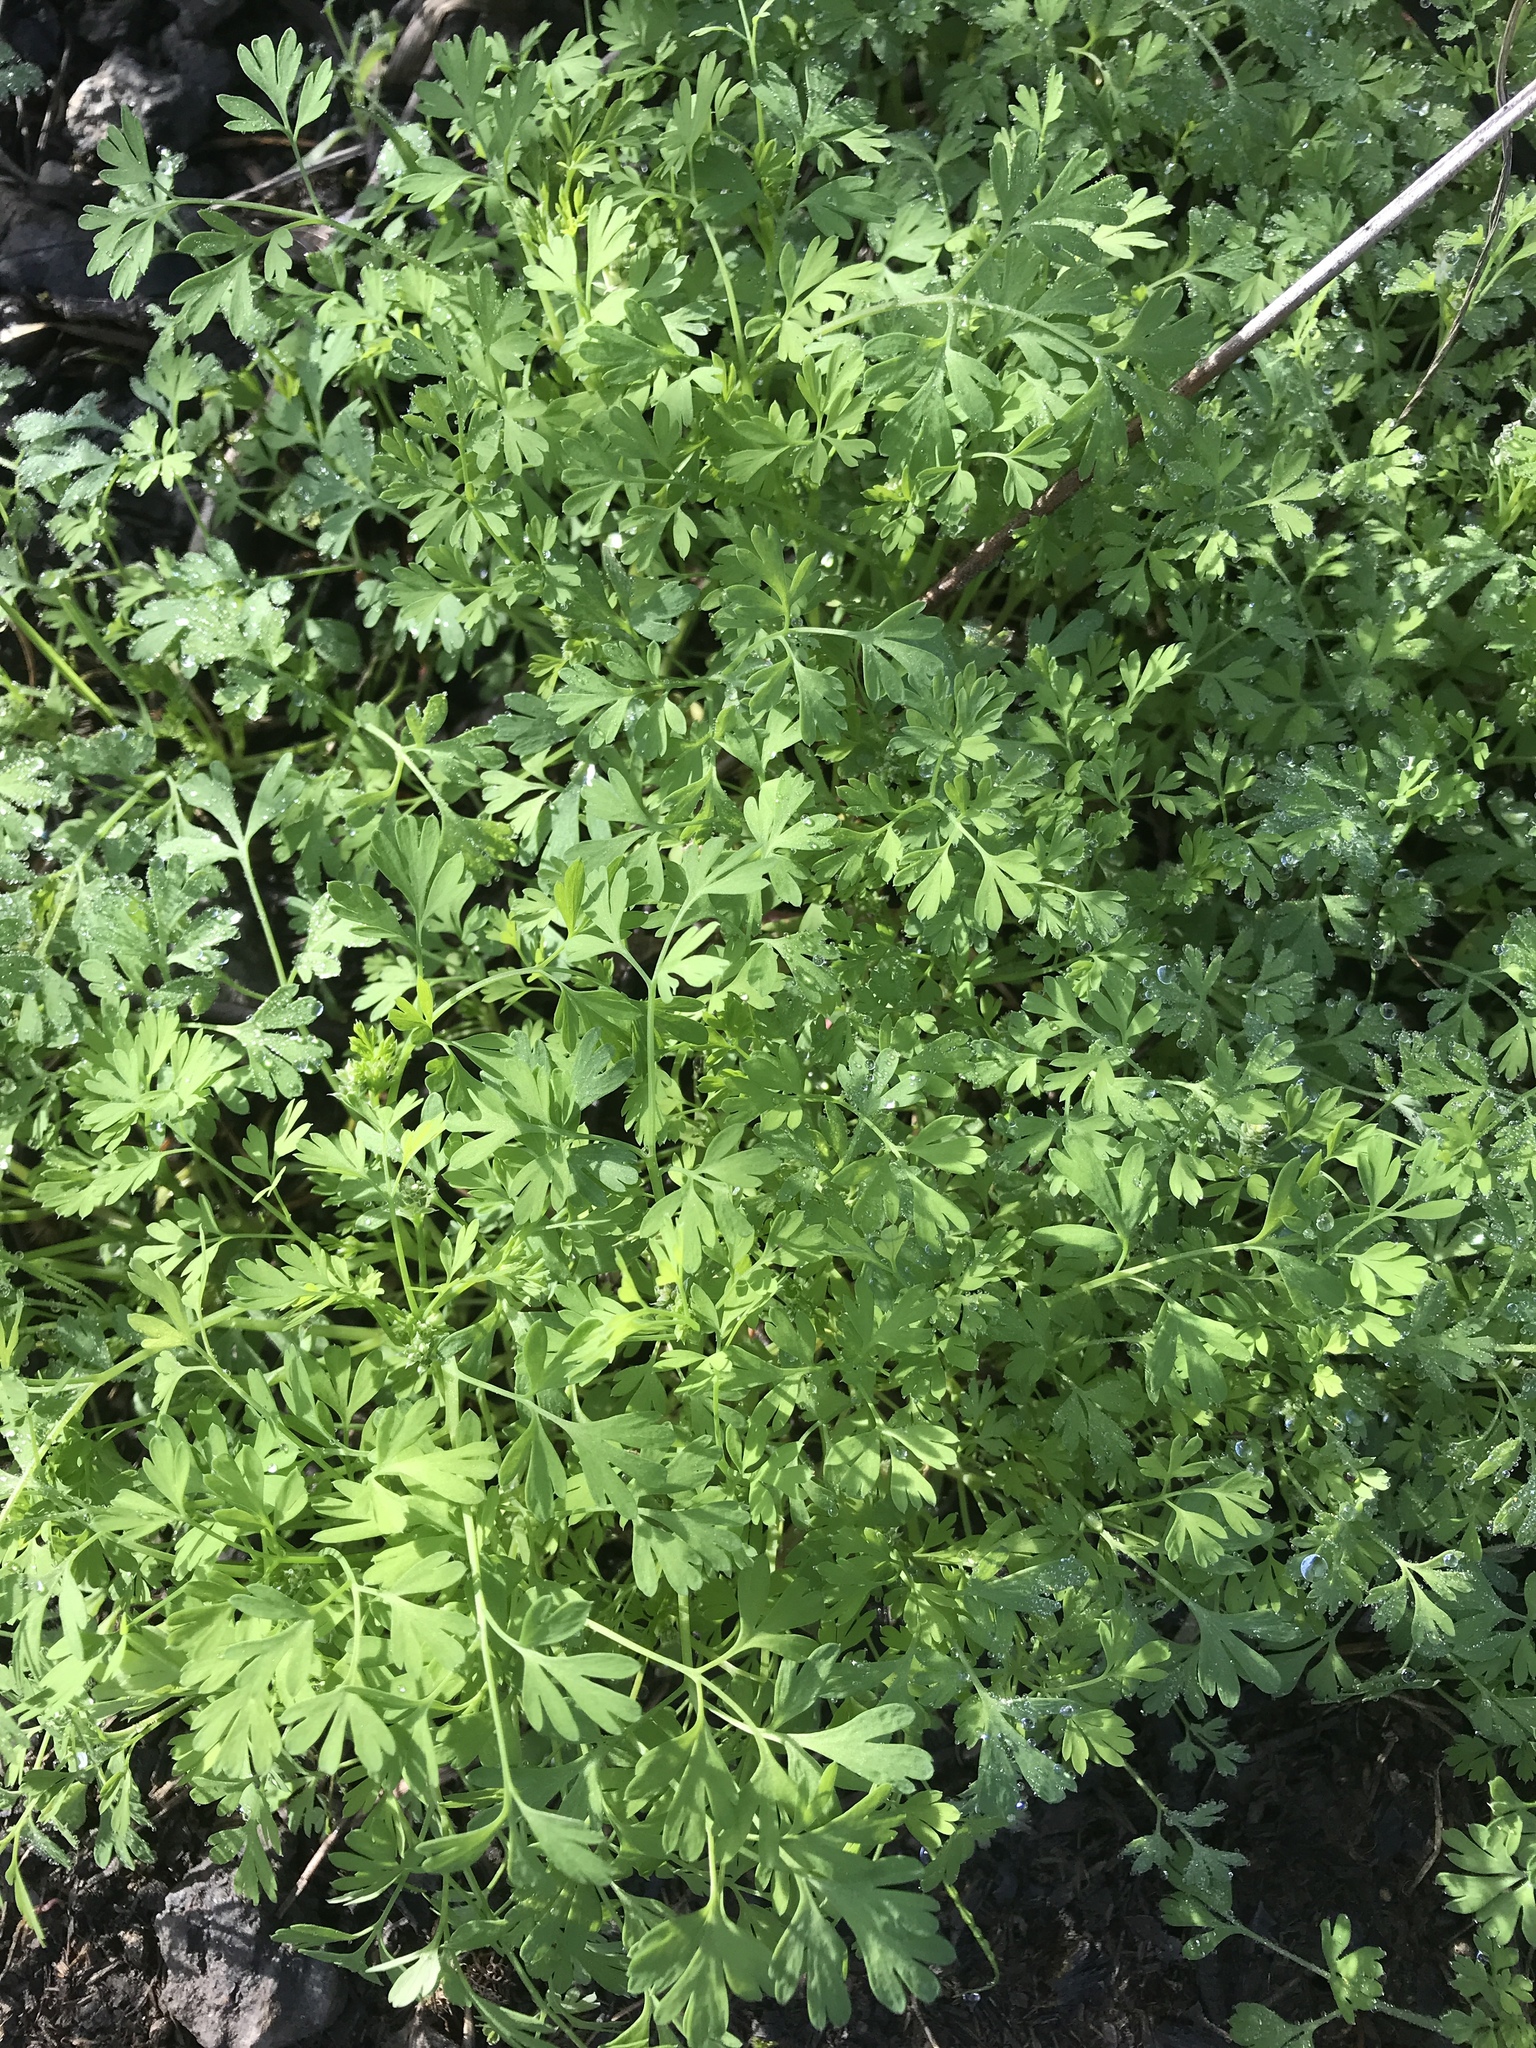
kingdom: Plantae
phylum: Tracheophyta
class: Magnoliopsida
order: Ranunculales
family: Papaveraceae
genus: Fumaria
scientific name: Fumaria
